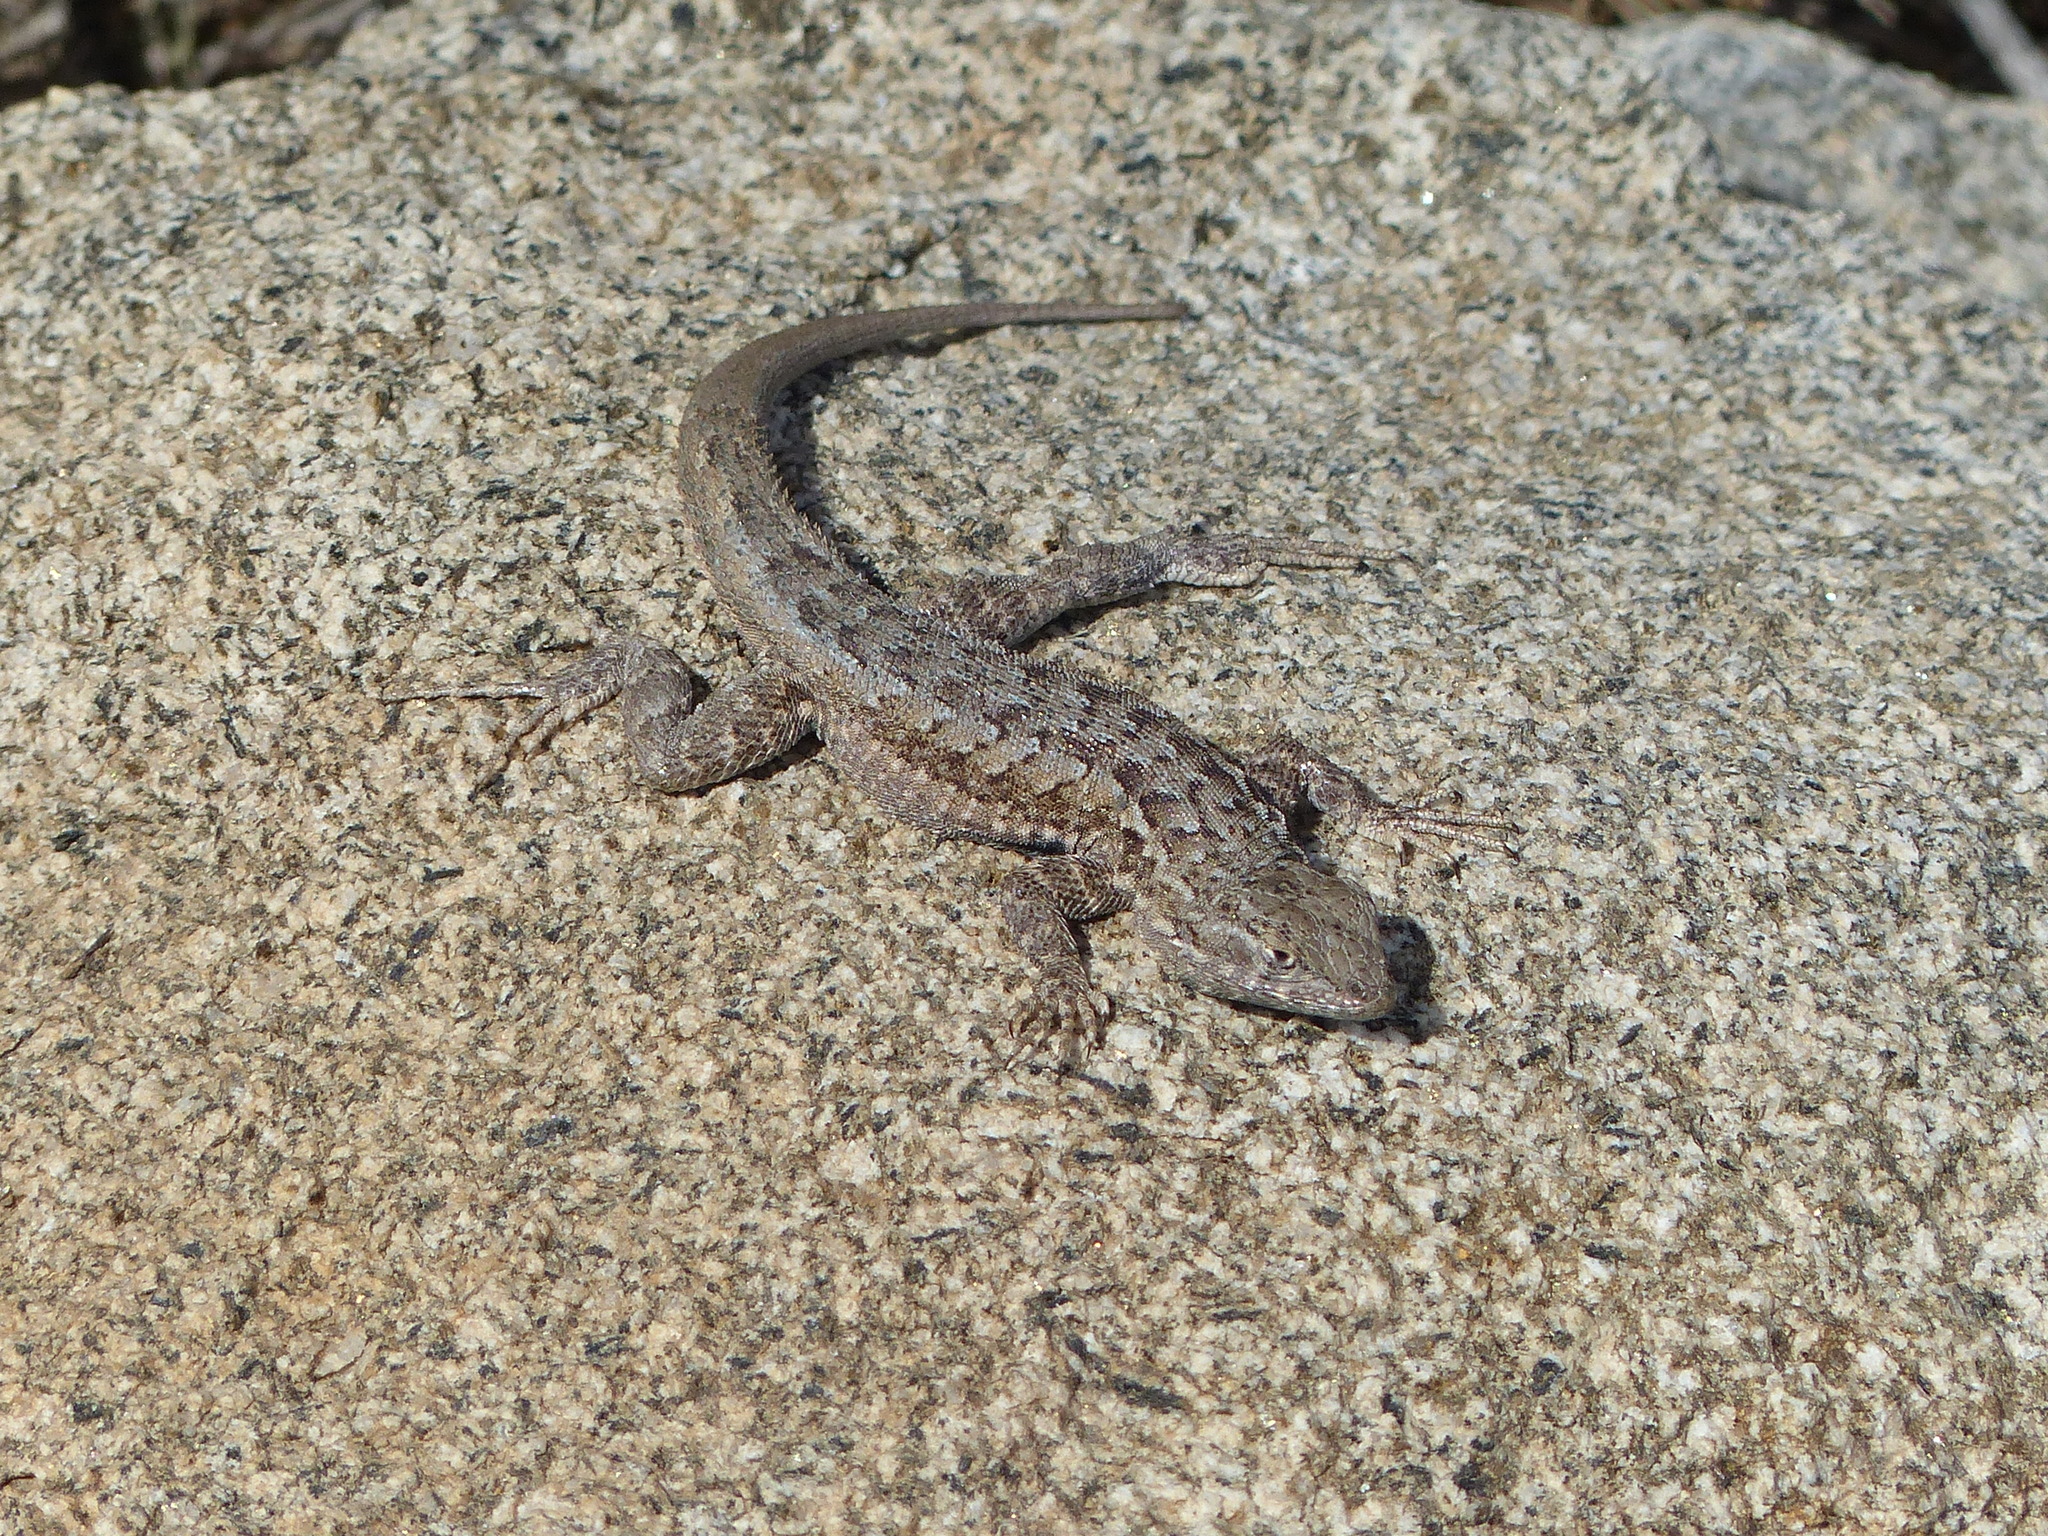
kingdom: Animalia
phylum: Chordata
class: Squamata
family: Phrynosomatidae
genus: Uta
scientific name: Uta stansburiana
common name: Side-blotched lizard
